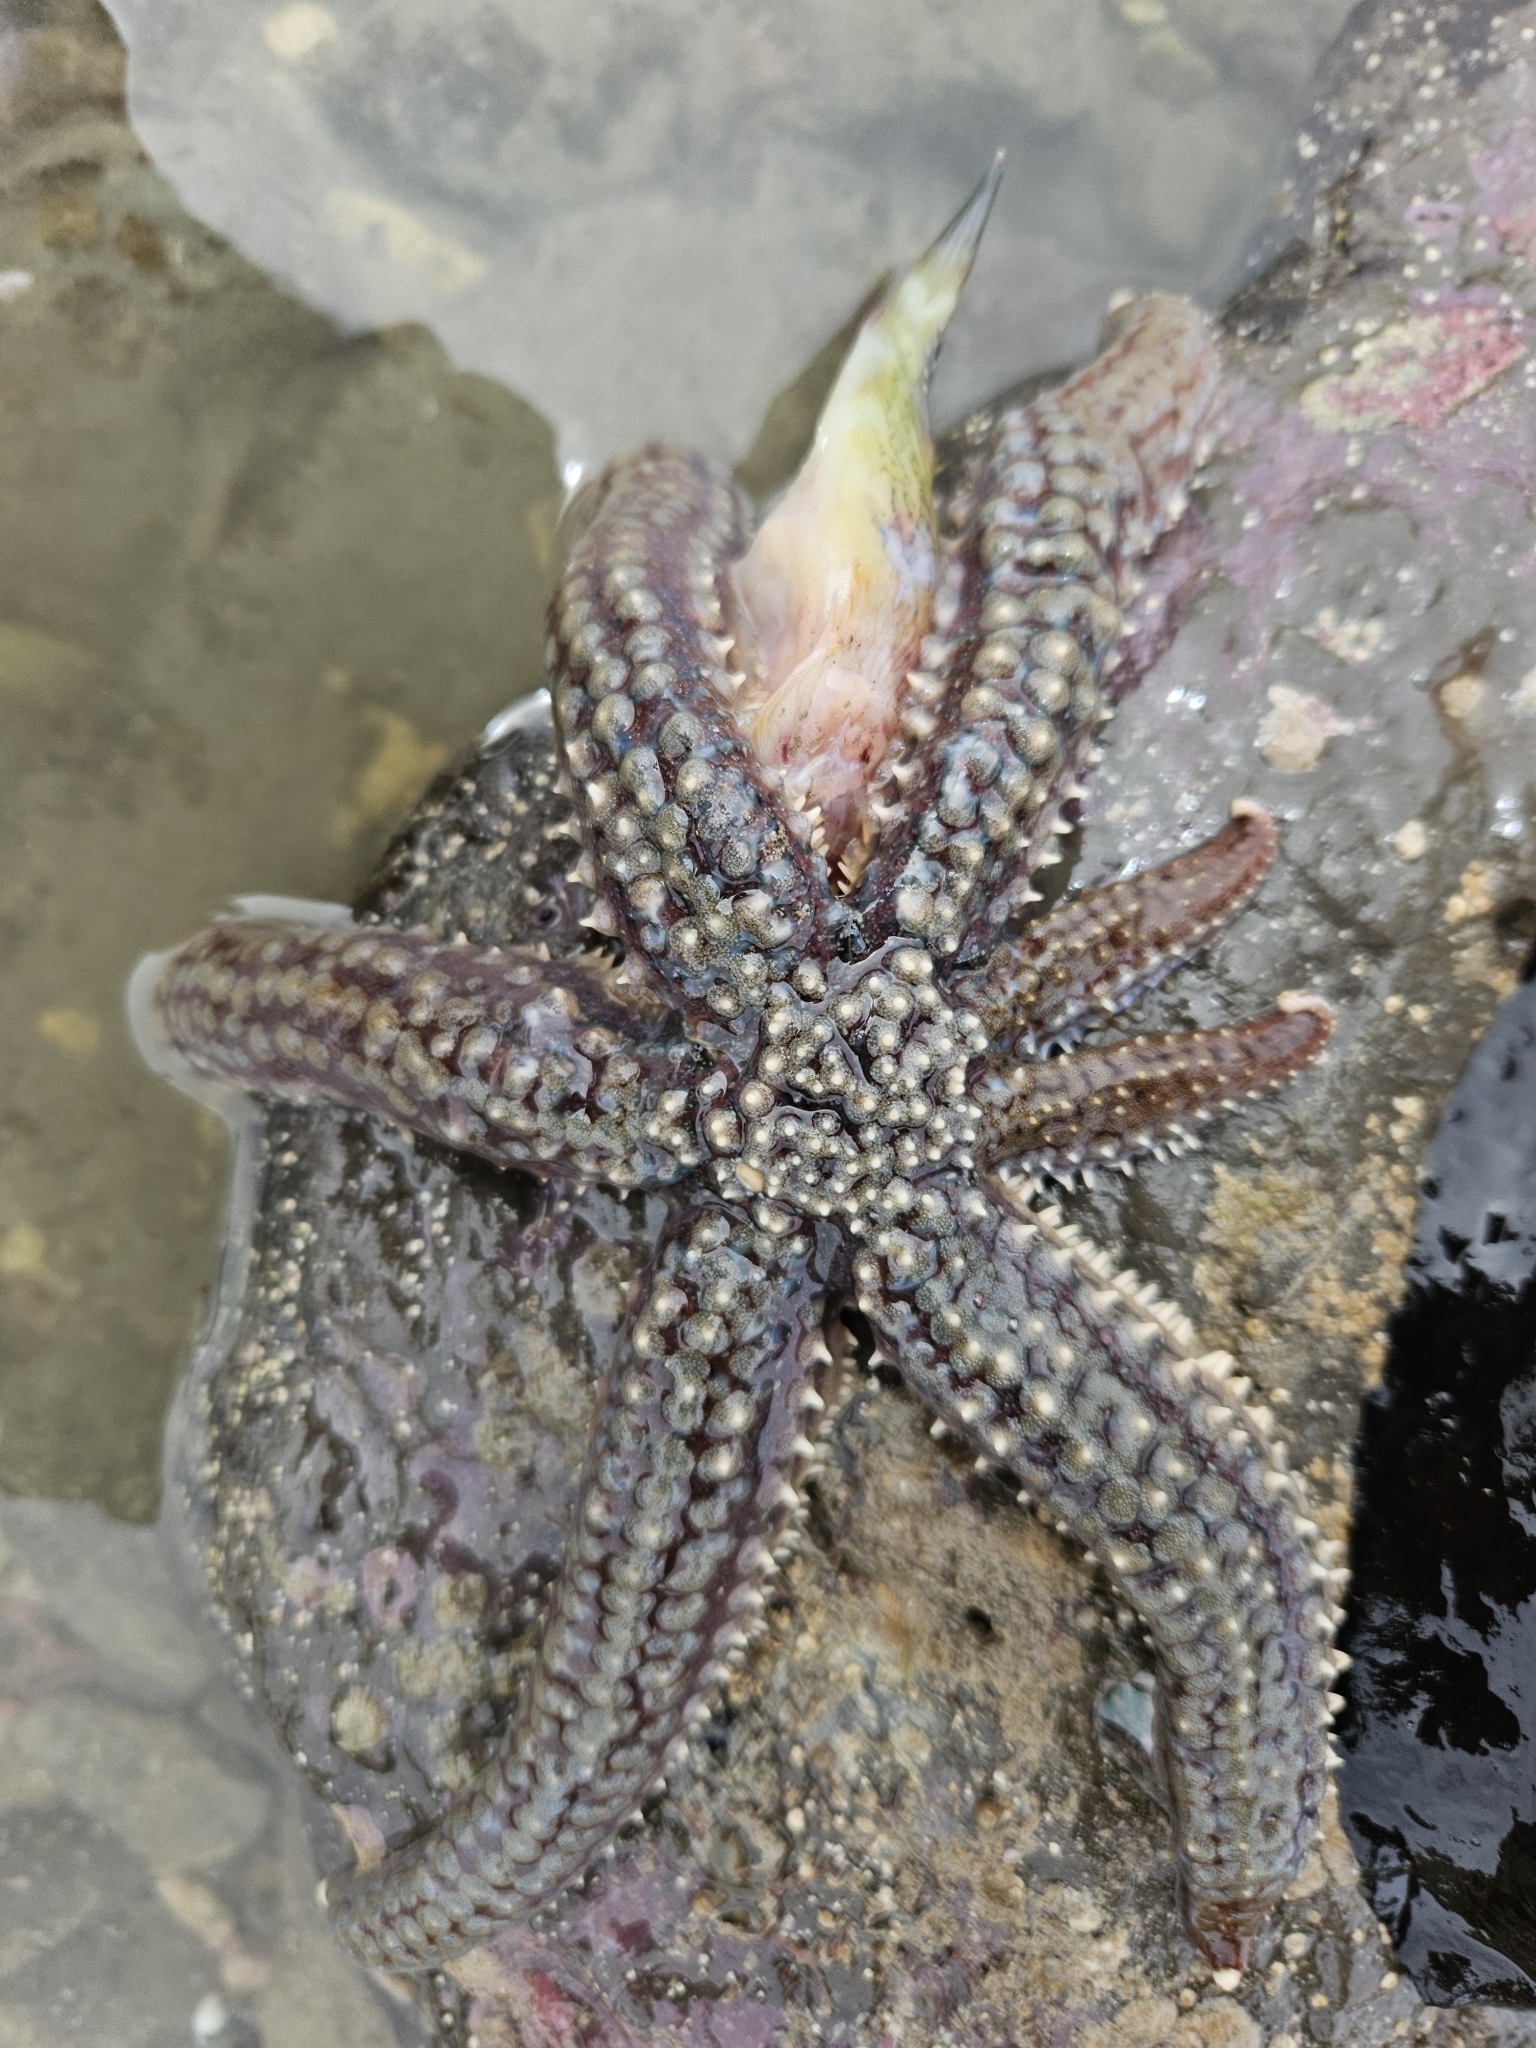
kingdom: Animalia
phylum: Echinodermata
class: Asteroidea
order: Forcipulatida
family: Asteriidae
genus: Astrostole
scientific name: Astrostole scabra
